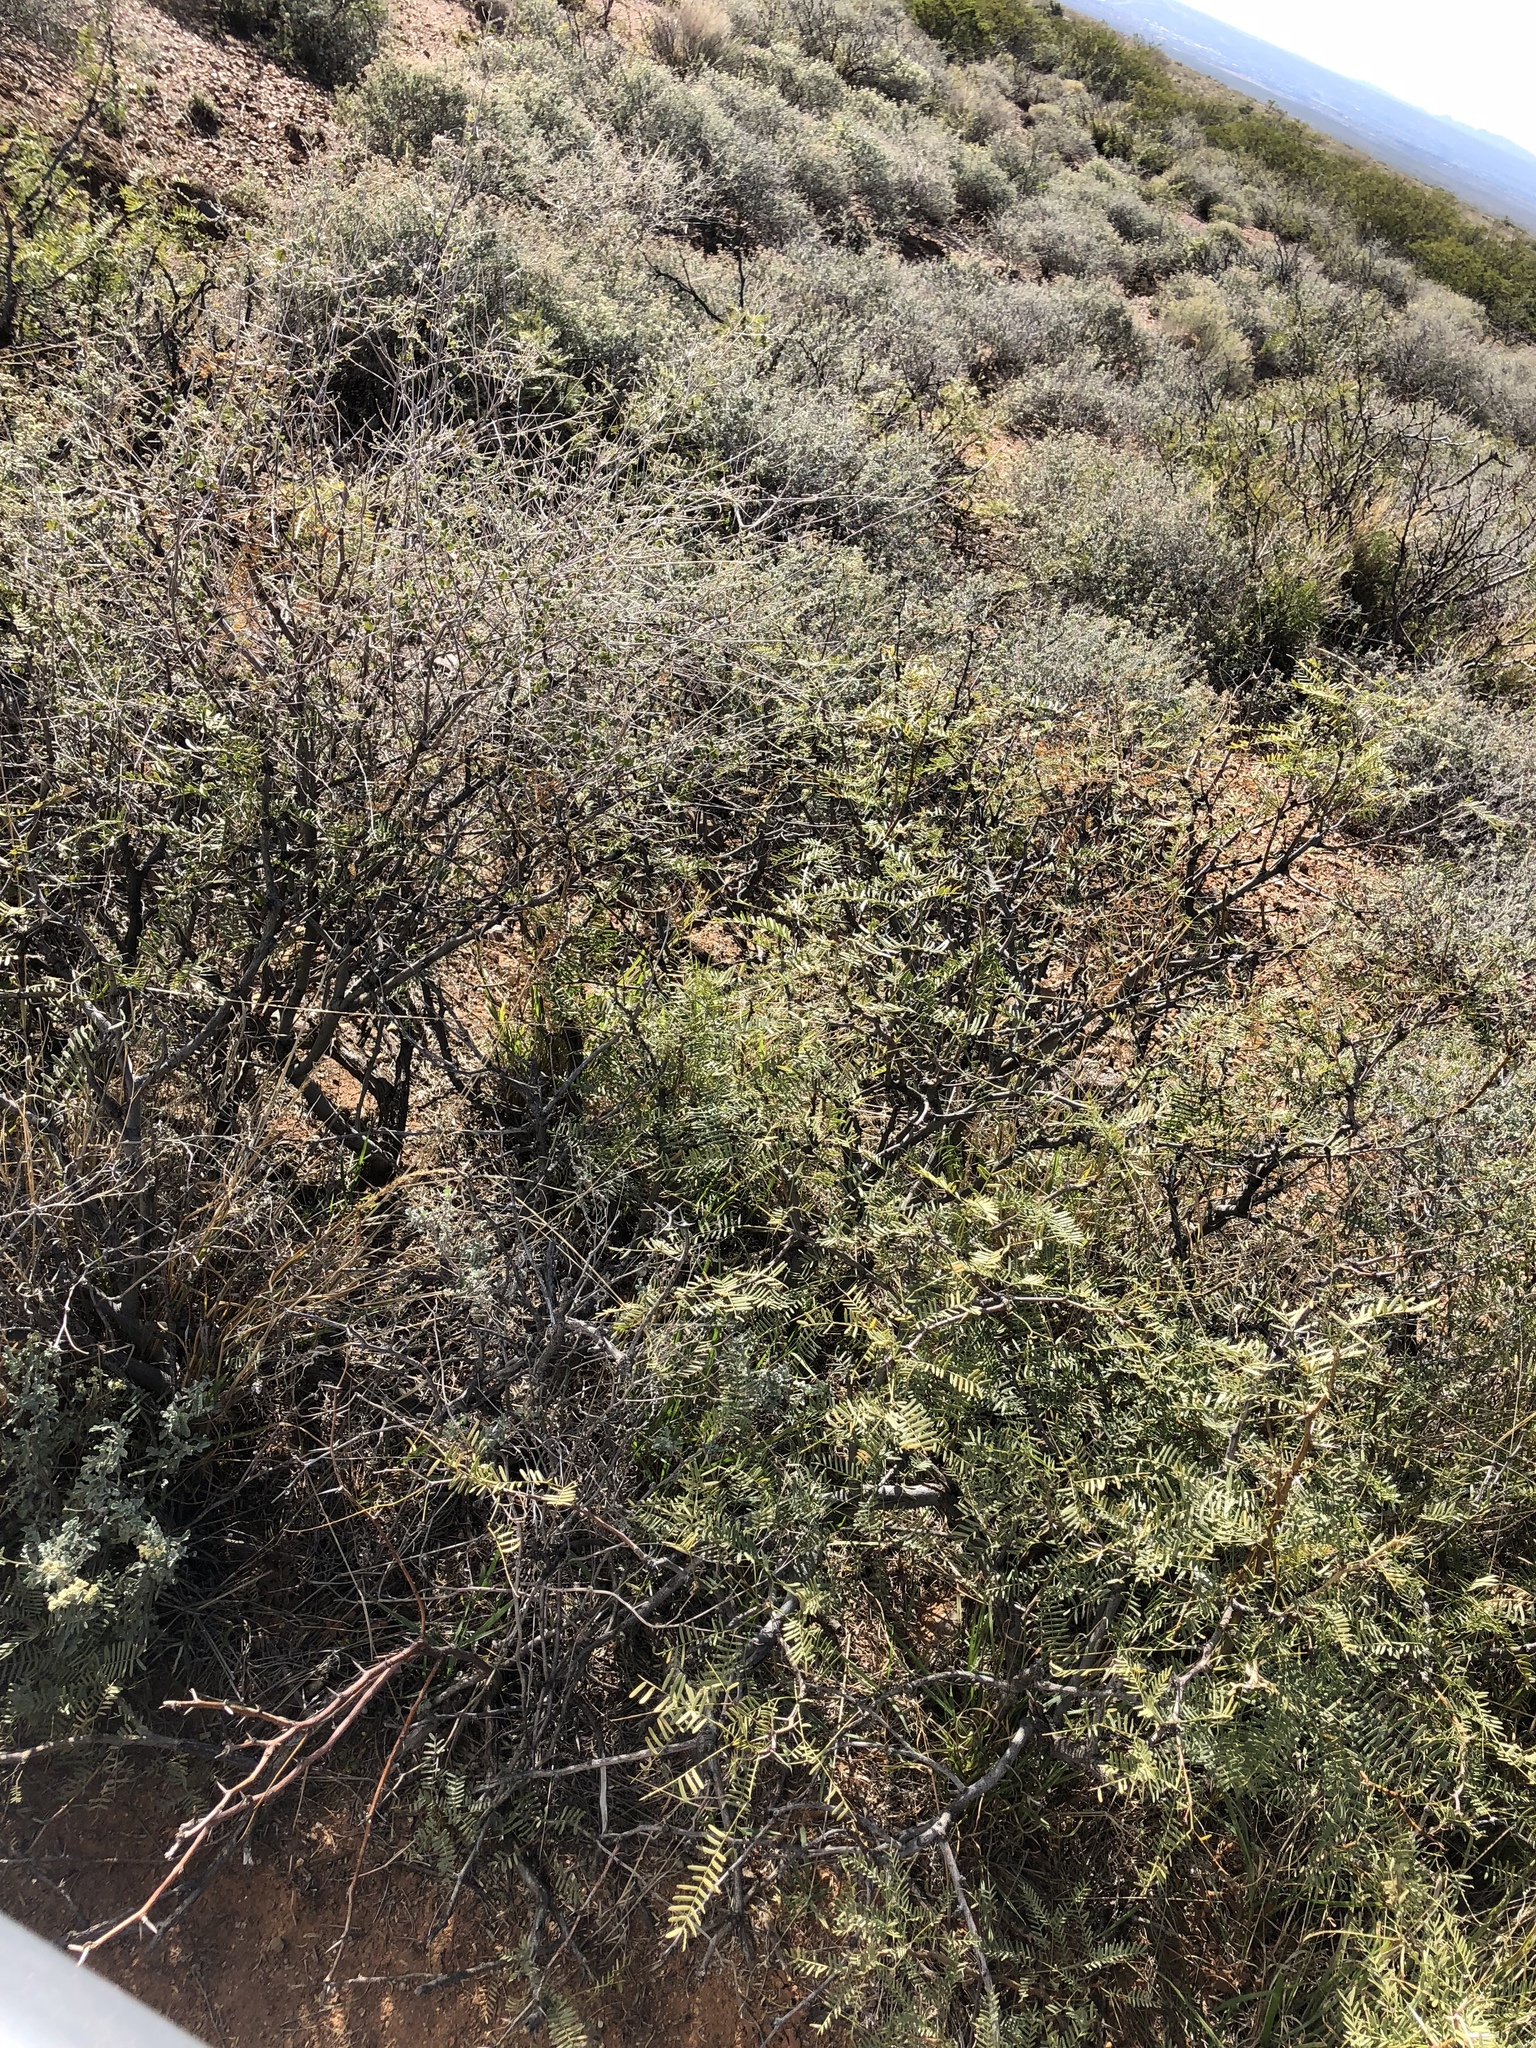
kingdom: Plantae
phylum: Tracheophyta
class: Magnoliopsida
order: Fabales
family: Fabaceae
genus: Prosopis
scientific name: Prosopis glandulosa
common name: Honey mesquite
